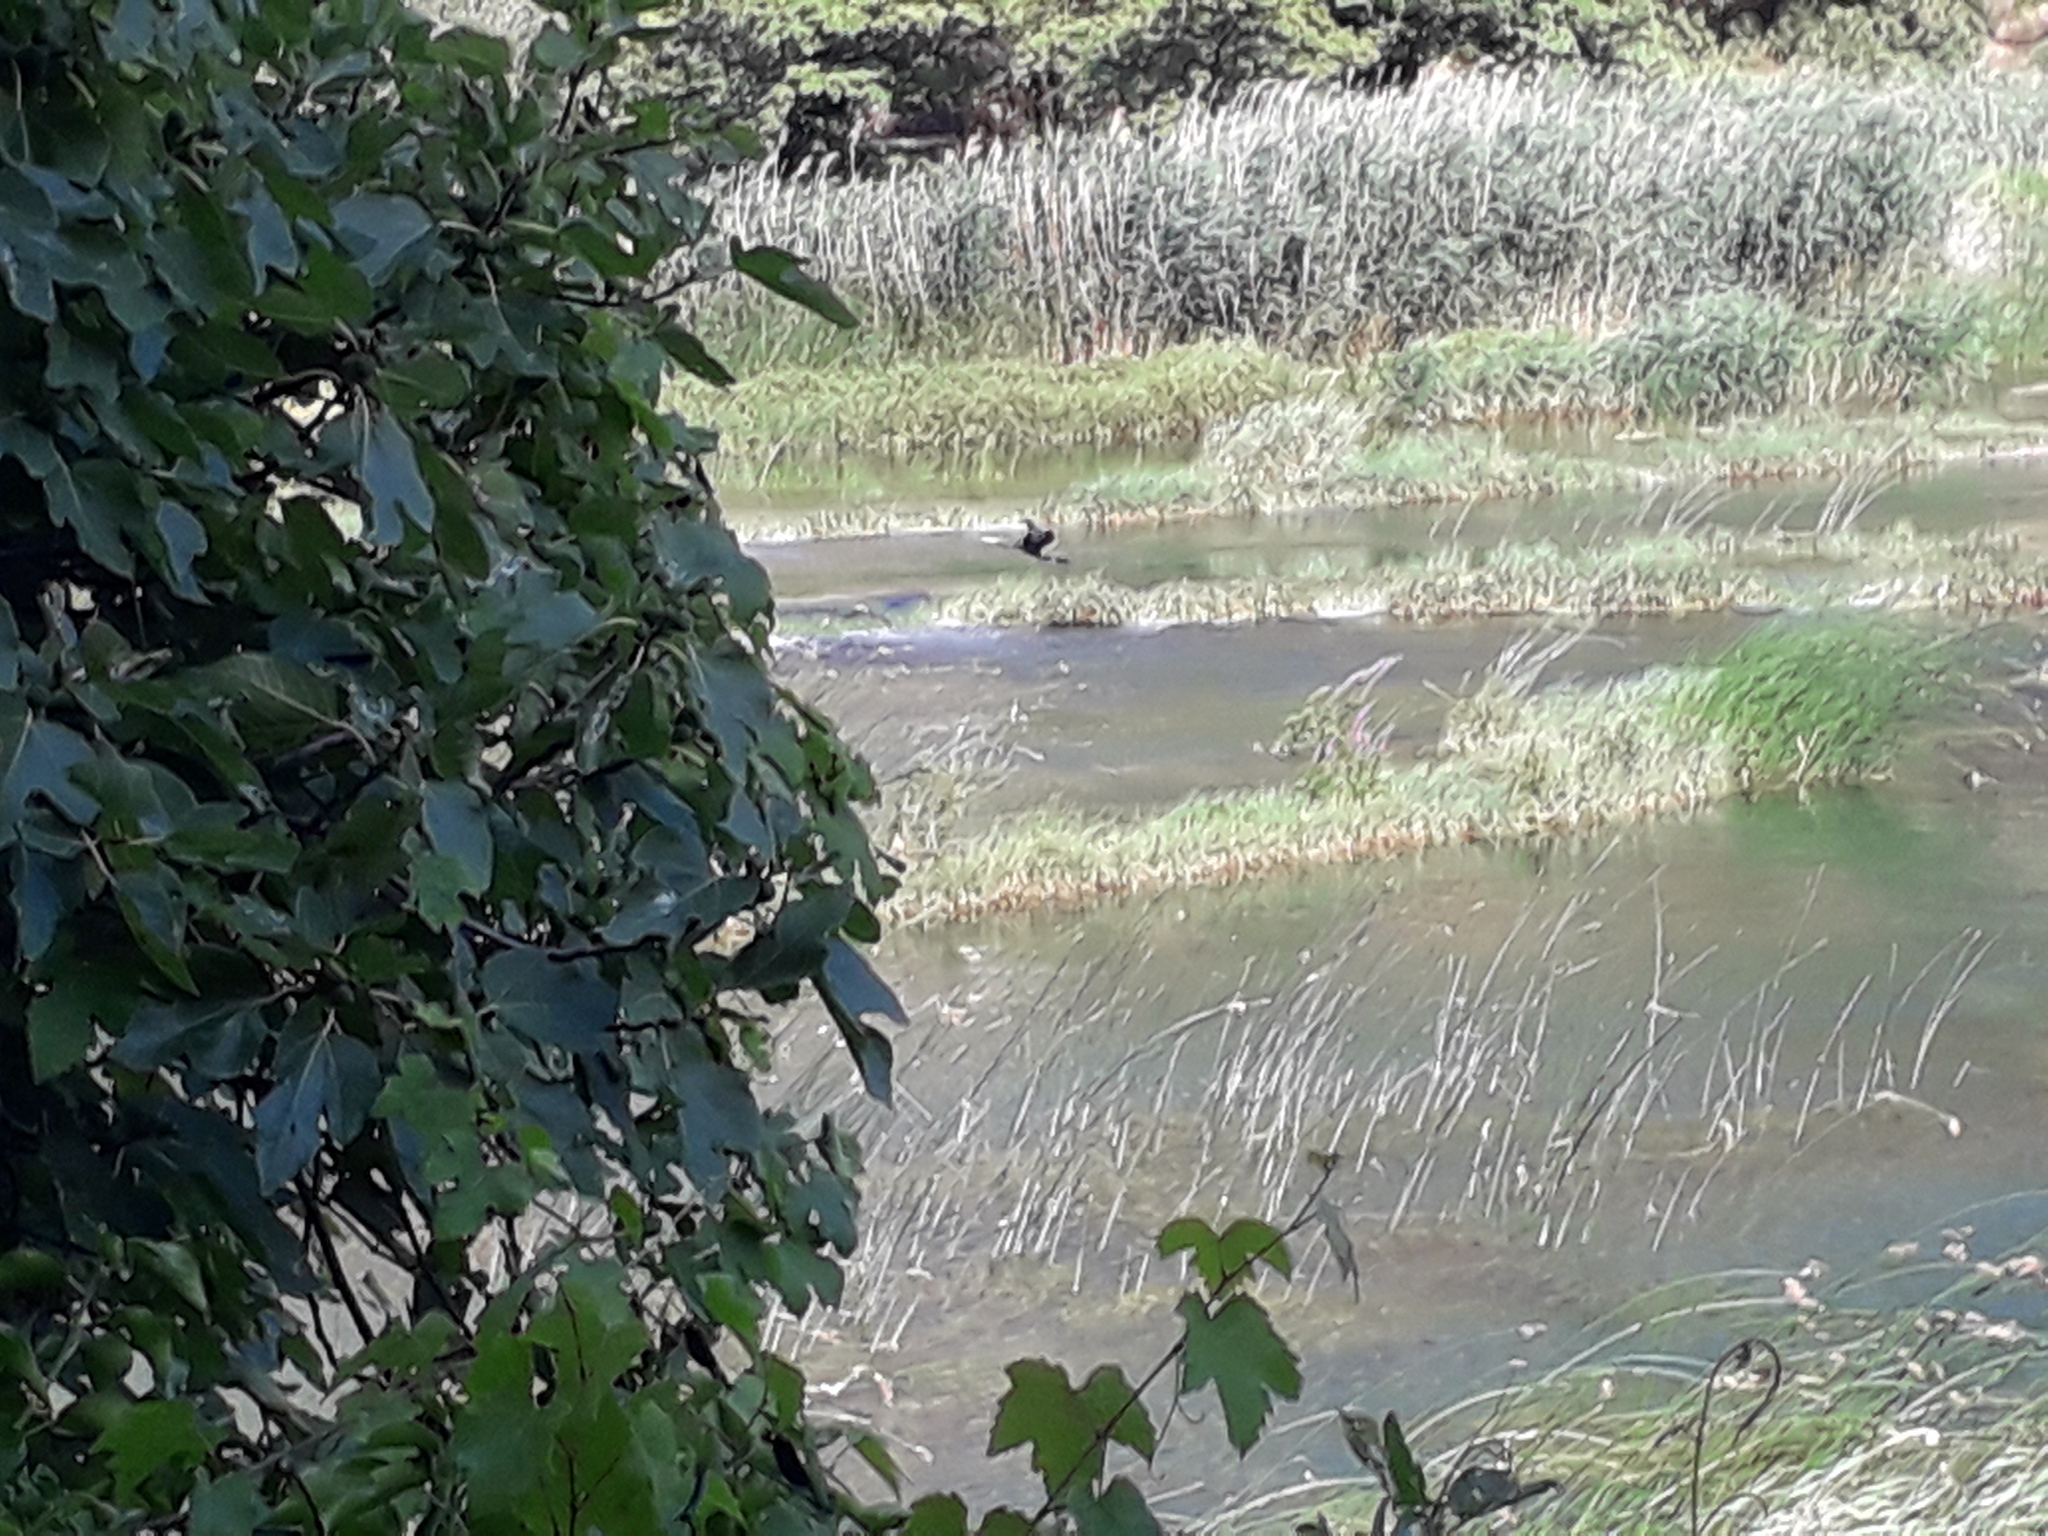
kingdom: Animalia
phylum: Chordata
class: Aves
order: Suliformes
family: Phalacrocoracidae
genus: Phalacrocorax
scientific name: Phalacrocorax carbo
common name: Great cormorant
